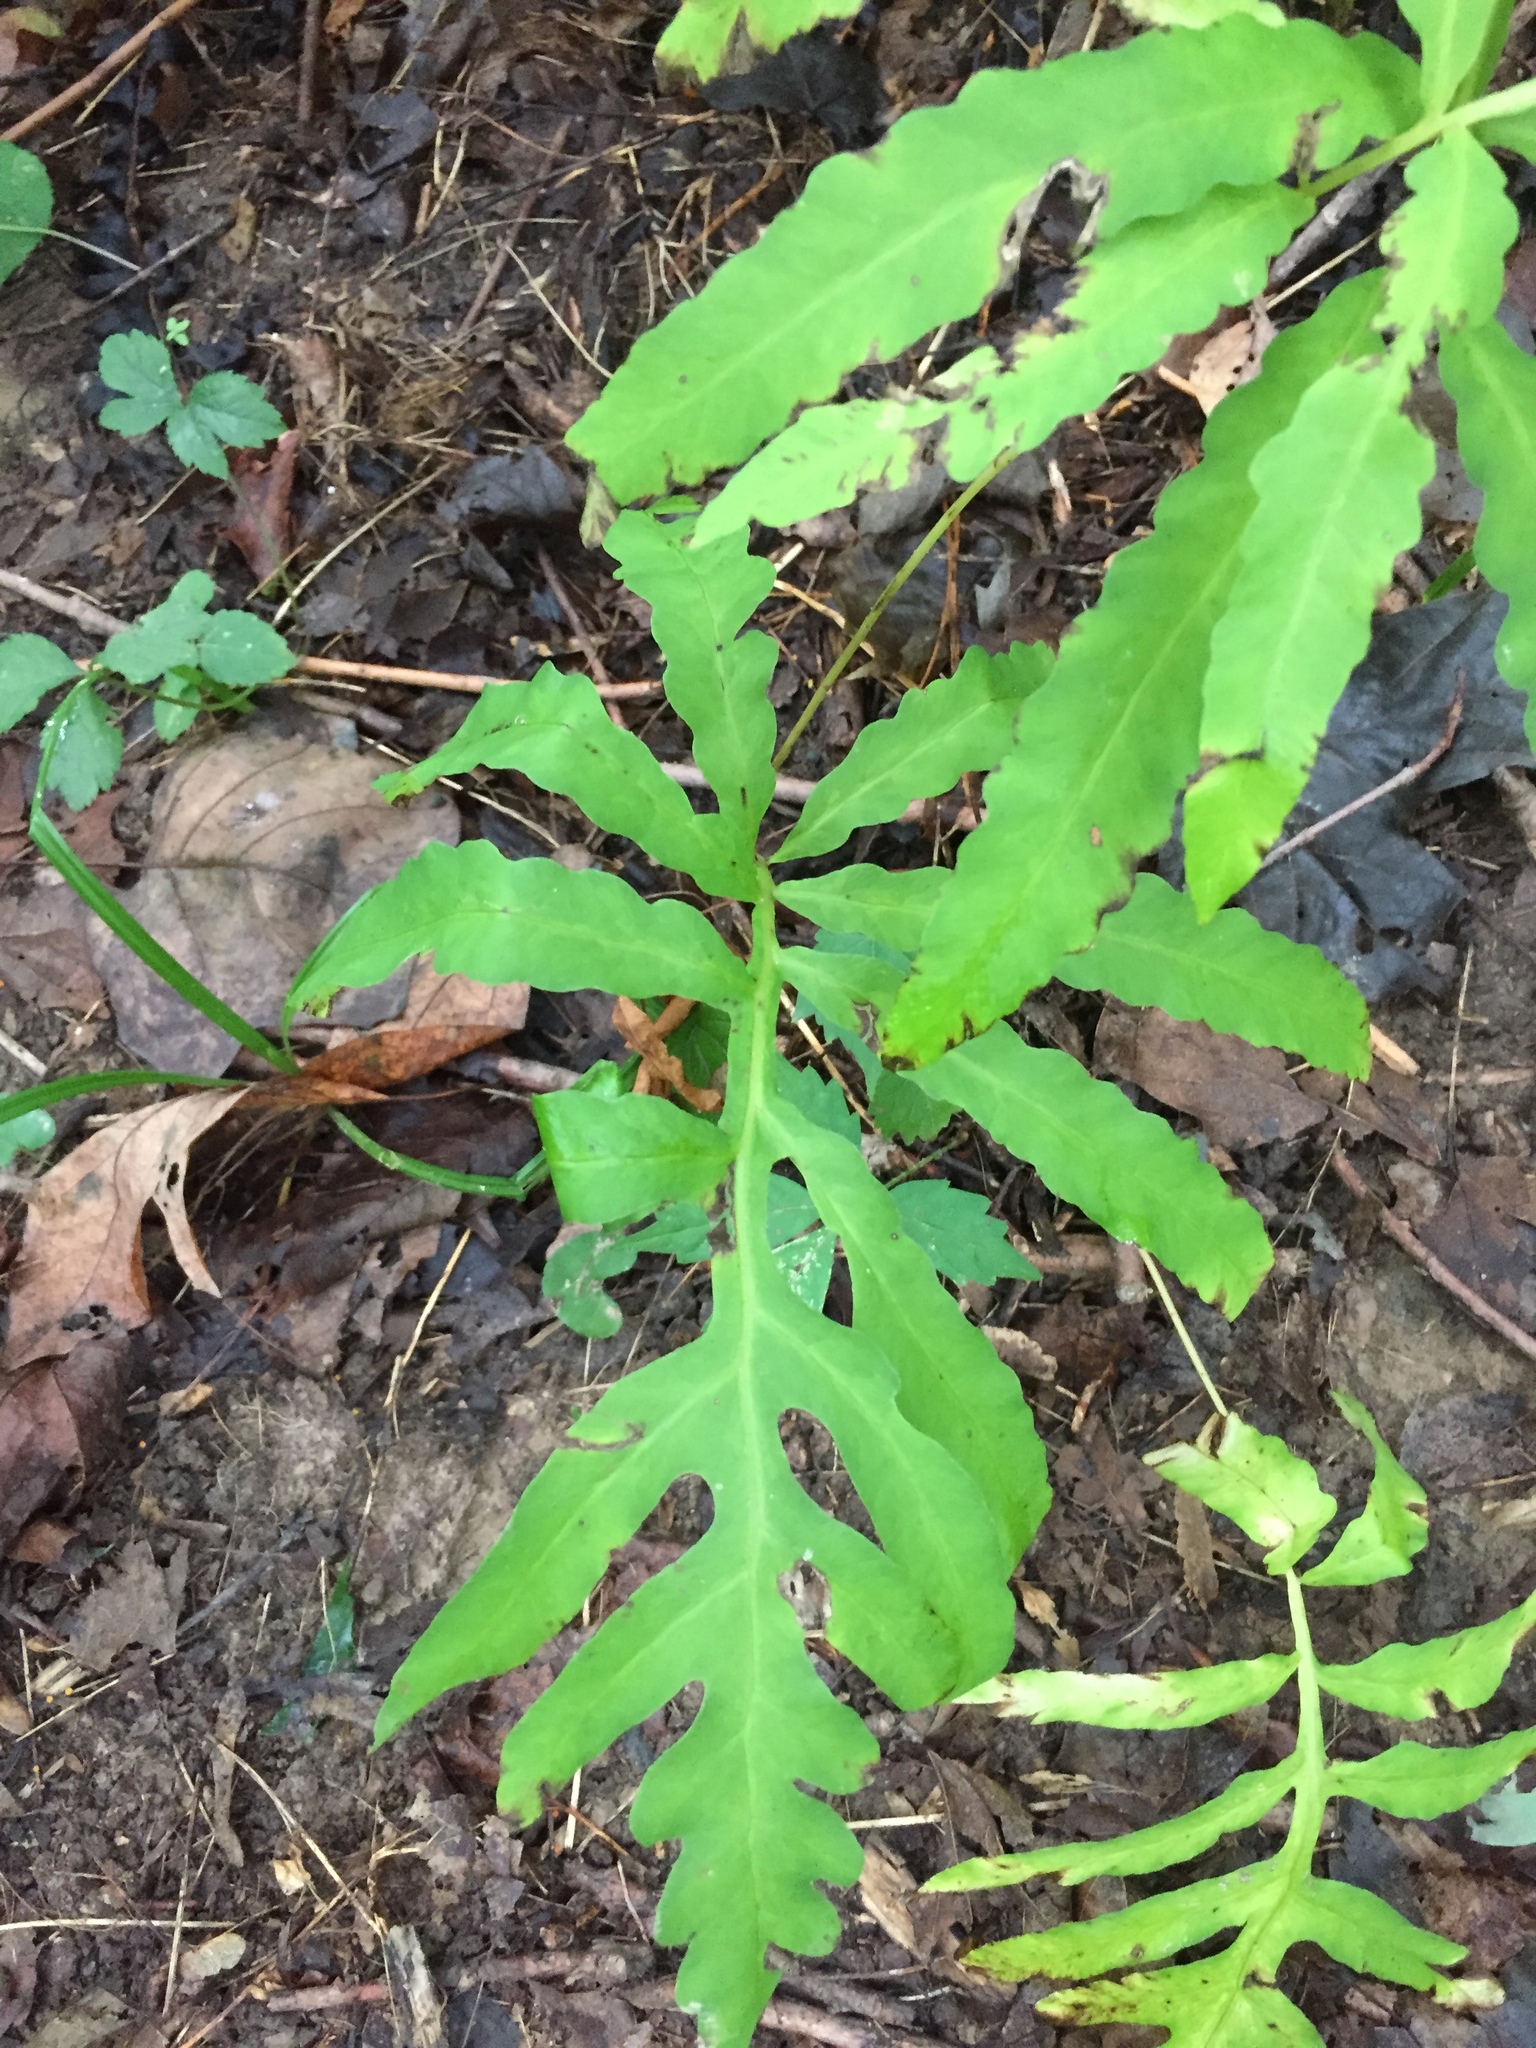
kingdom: Plantae
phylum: Tracheophyta
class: Polypodiopsida
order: Polypodiales
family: Onocleaceae
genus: Onoclea
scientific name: Onoclea sensibilis
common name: Sensitive fern
